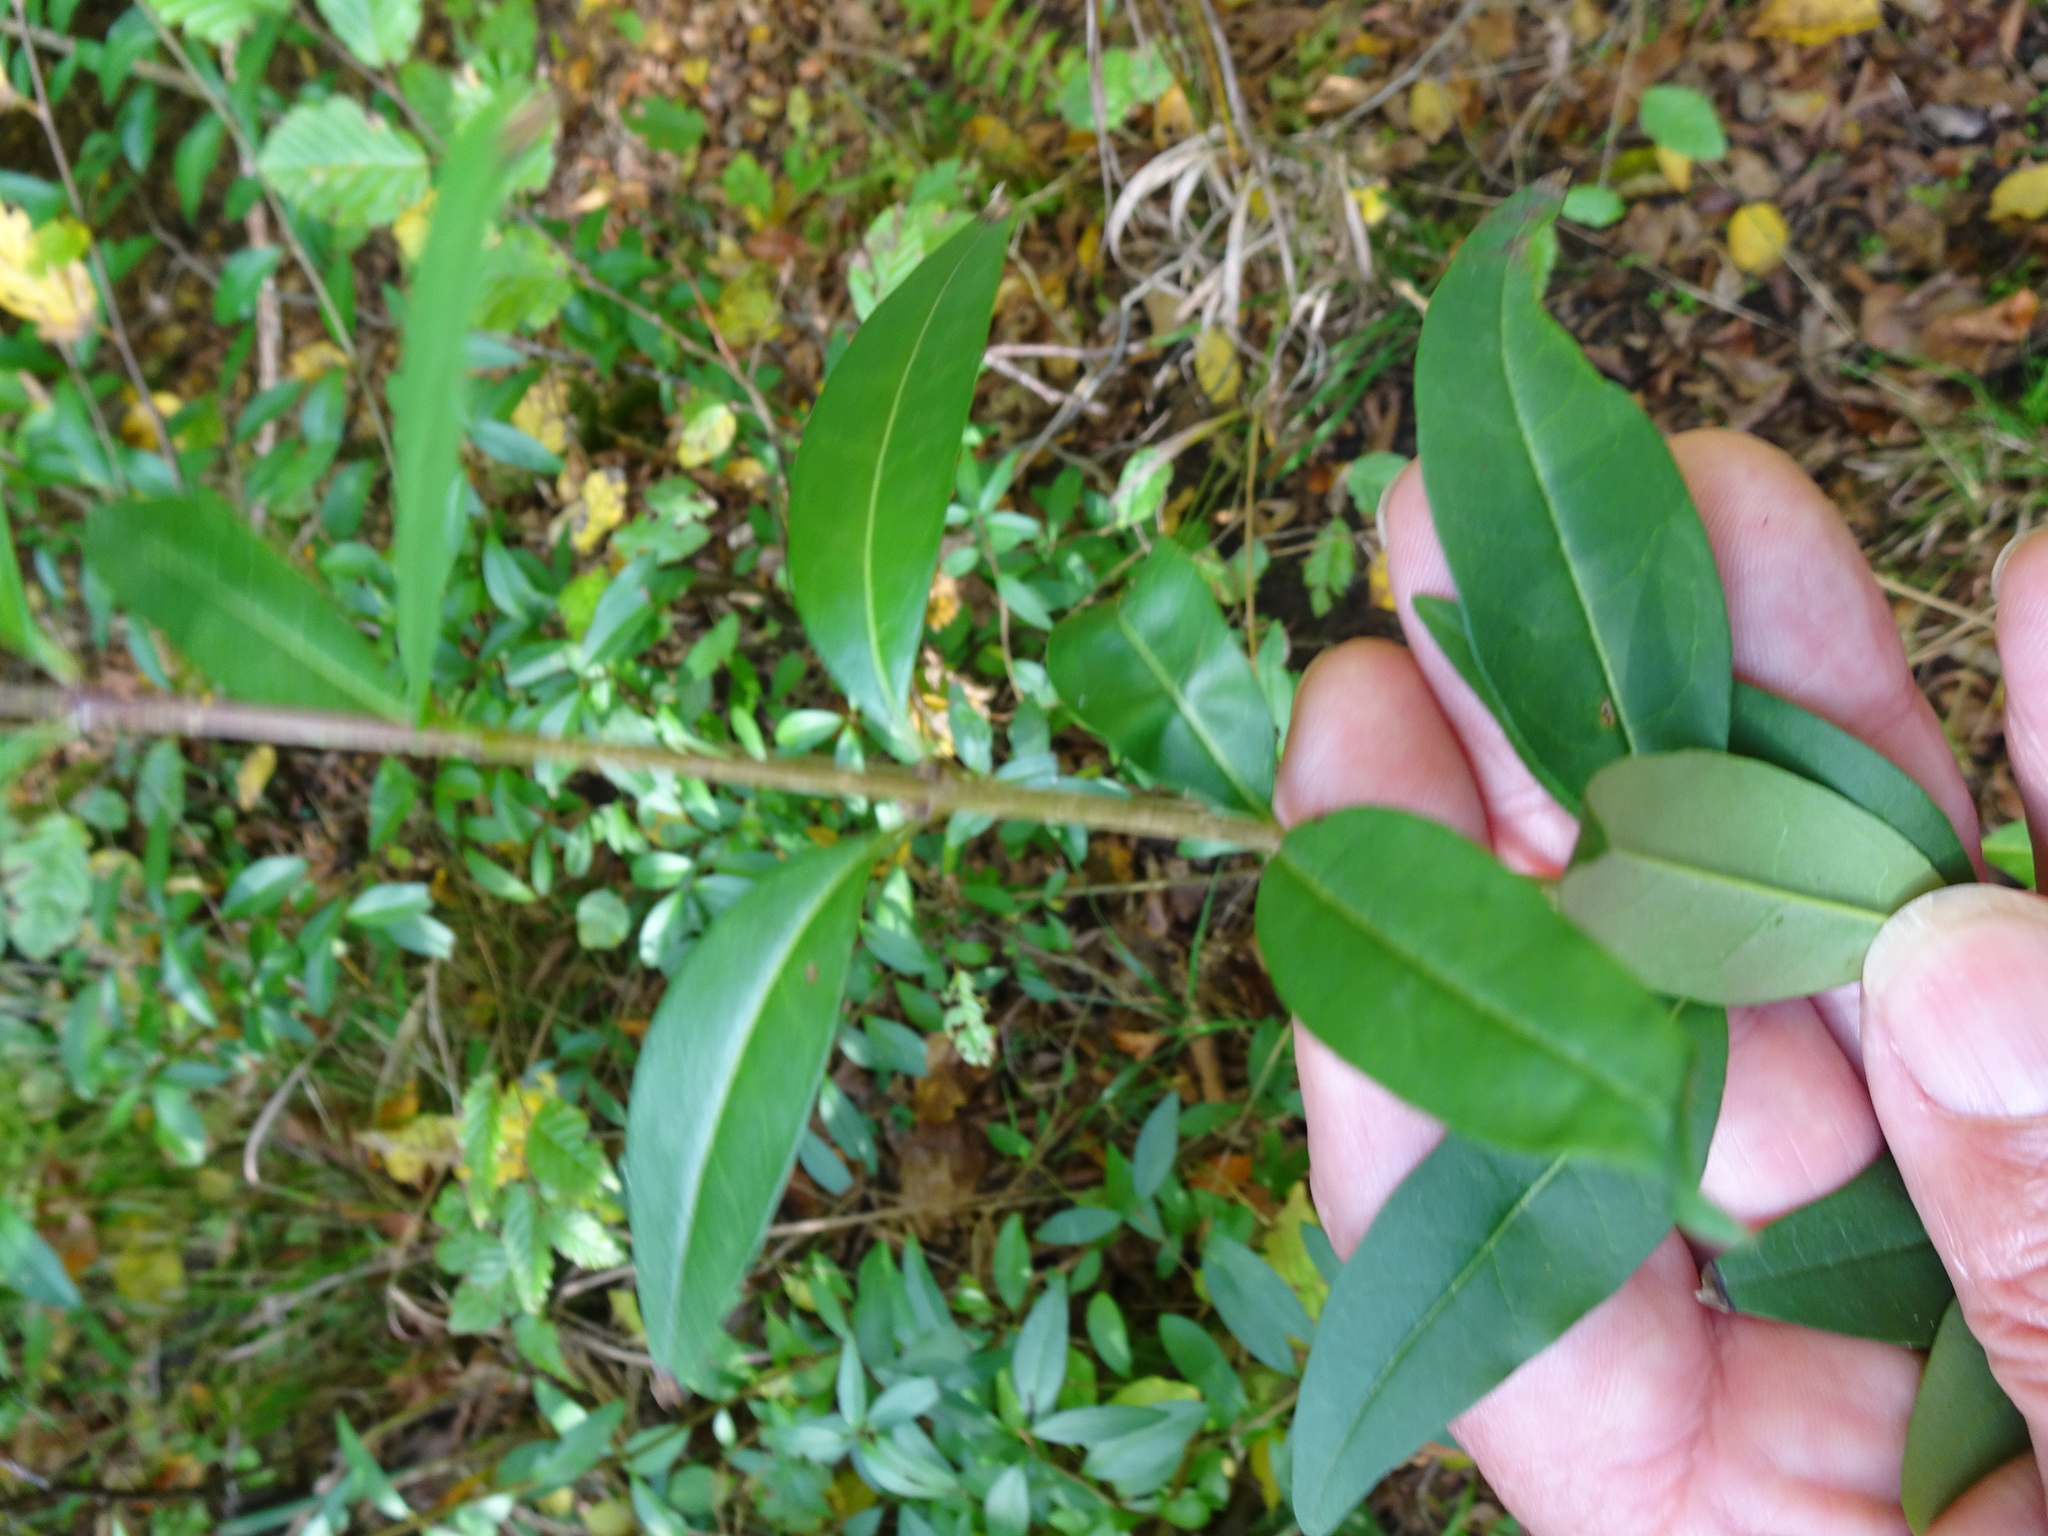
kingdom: Plantae
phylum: Tracheophyta
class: Magnoliopsida
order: Lamiales
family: Oleaceae
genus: Ligustrum
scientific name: Ligustrum vulgare
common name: Wild privet
